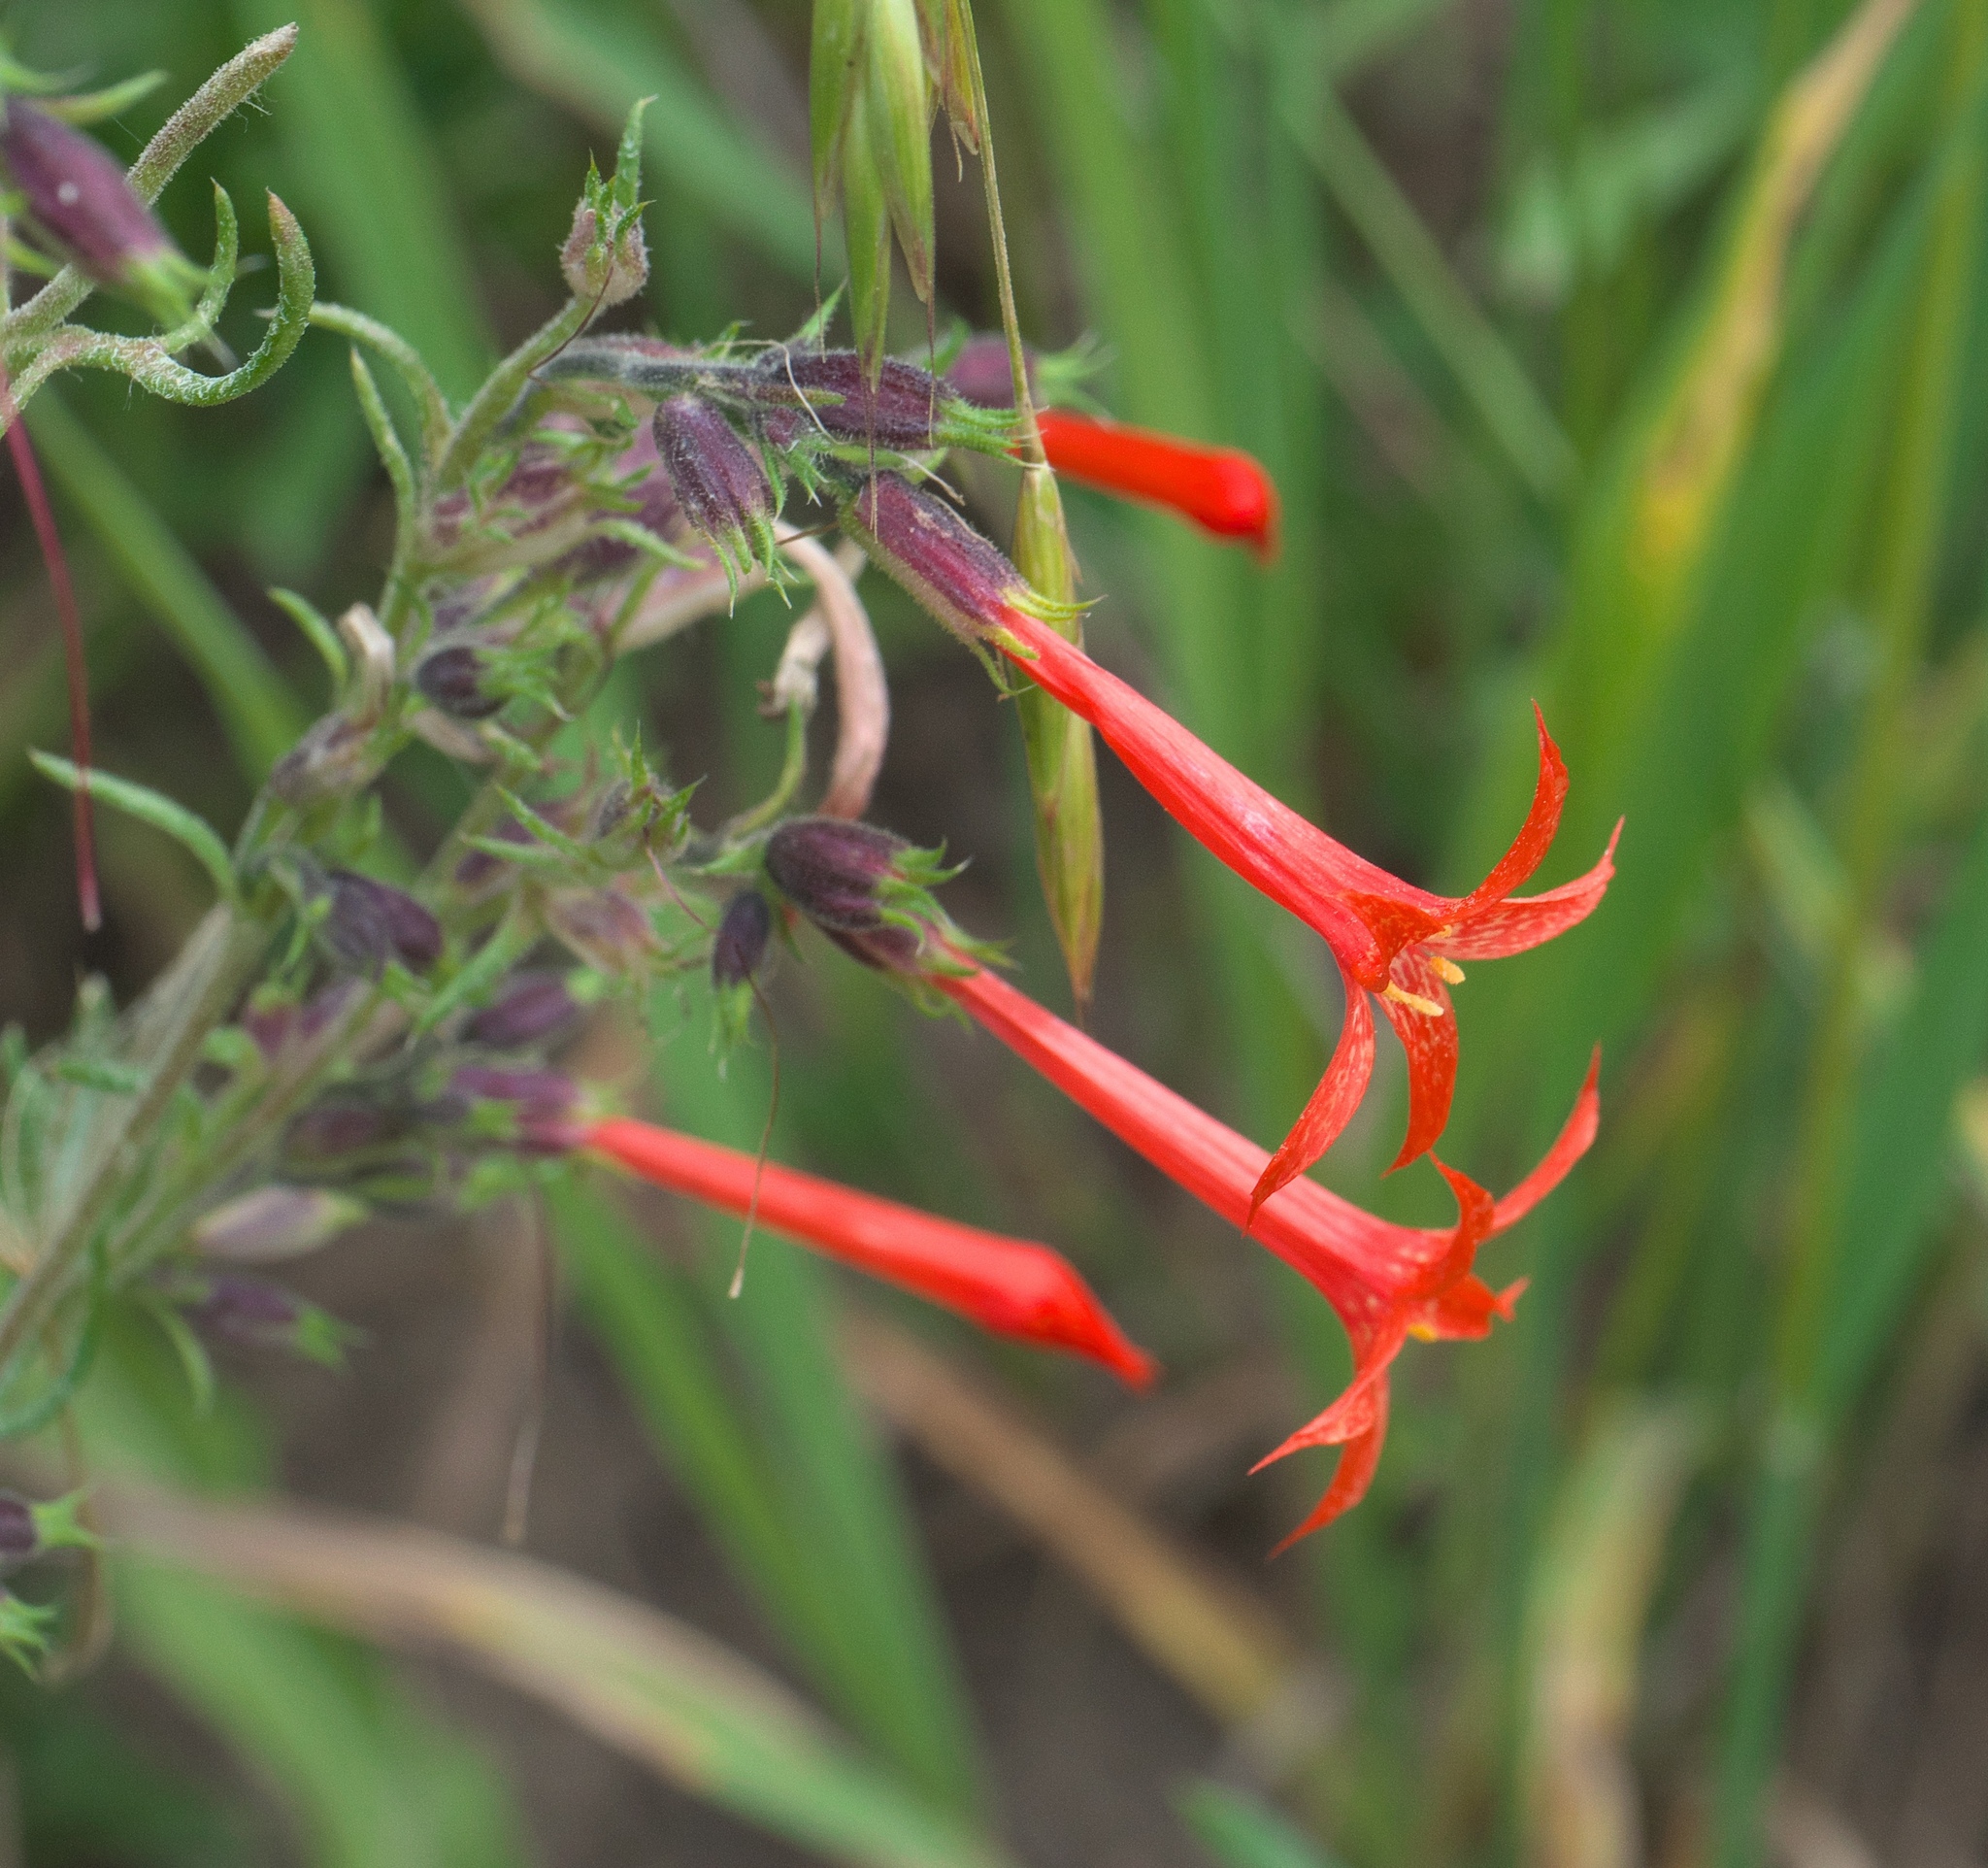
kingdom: Plantae
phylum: Tracheophyta
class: Magnoliopsida
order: Ericales
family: Polemoniaceae
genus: Ipomopsis
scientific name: Ipomopsis aggregata
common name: Scarlet gilia
